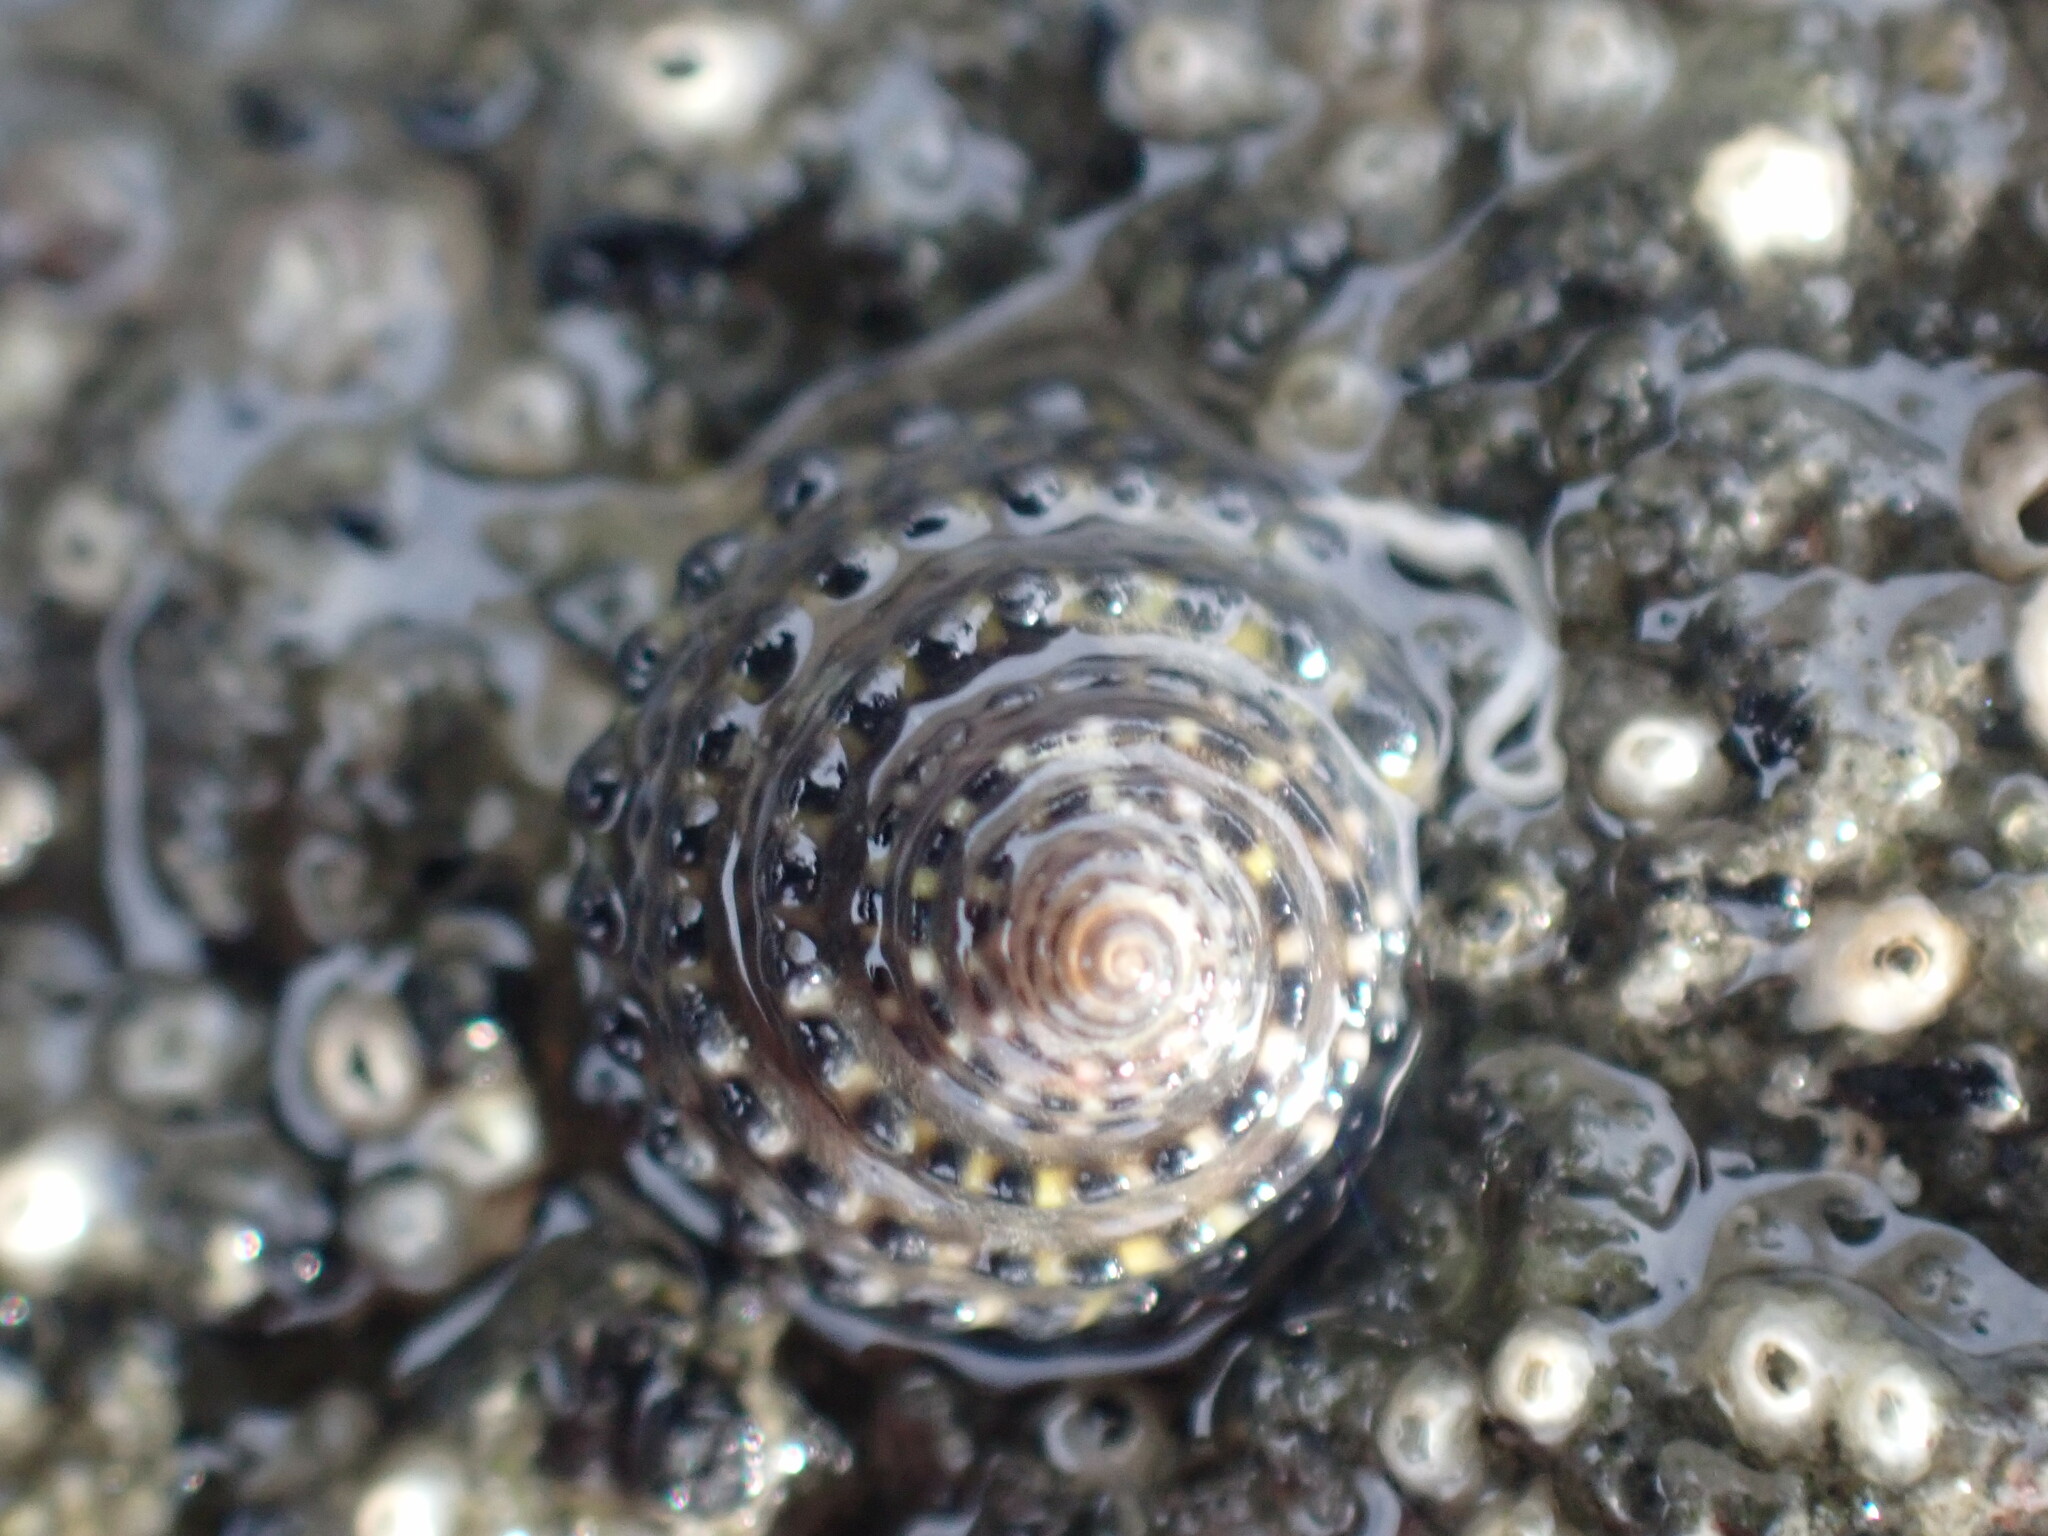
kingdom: Animalia
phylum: Mollusca
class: Gastropoda
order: Trochida
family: Trochidae
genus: Diloma
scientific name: Diloma bicanaliculatum
